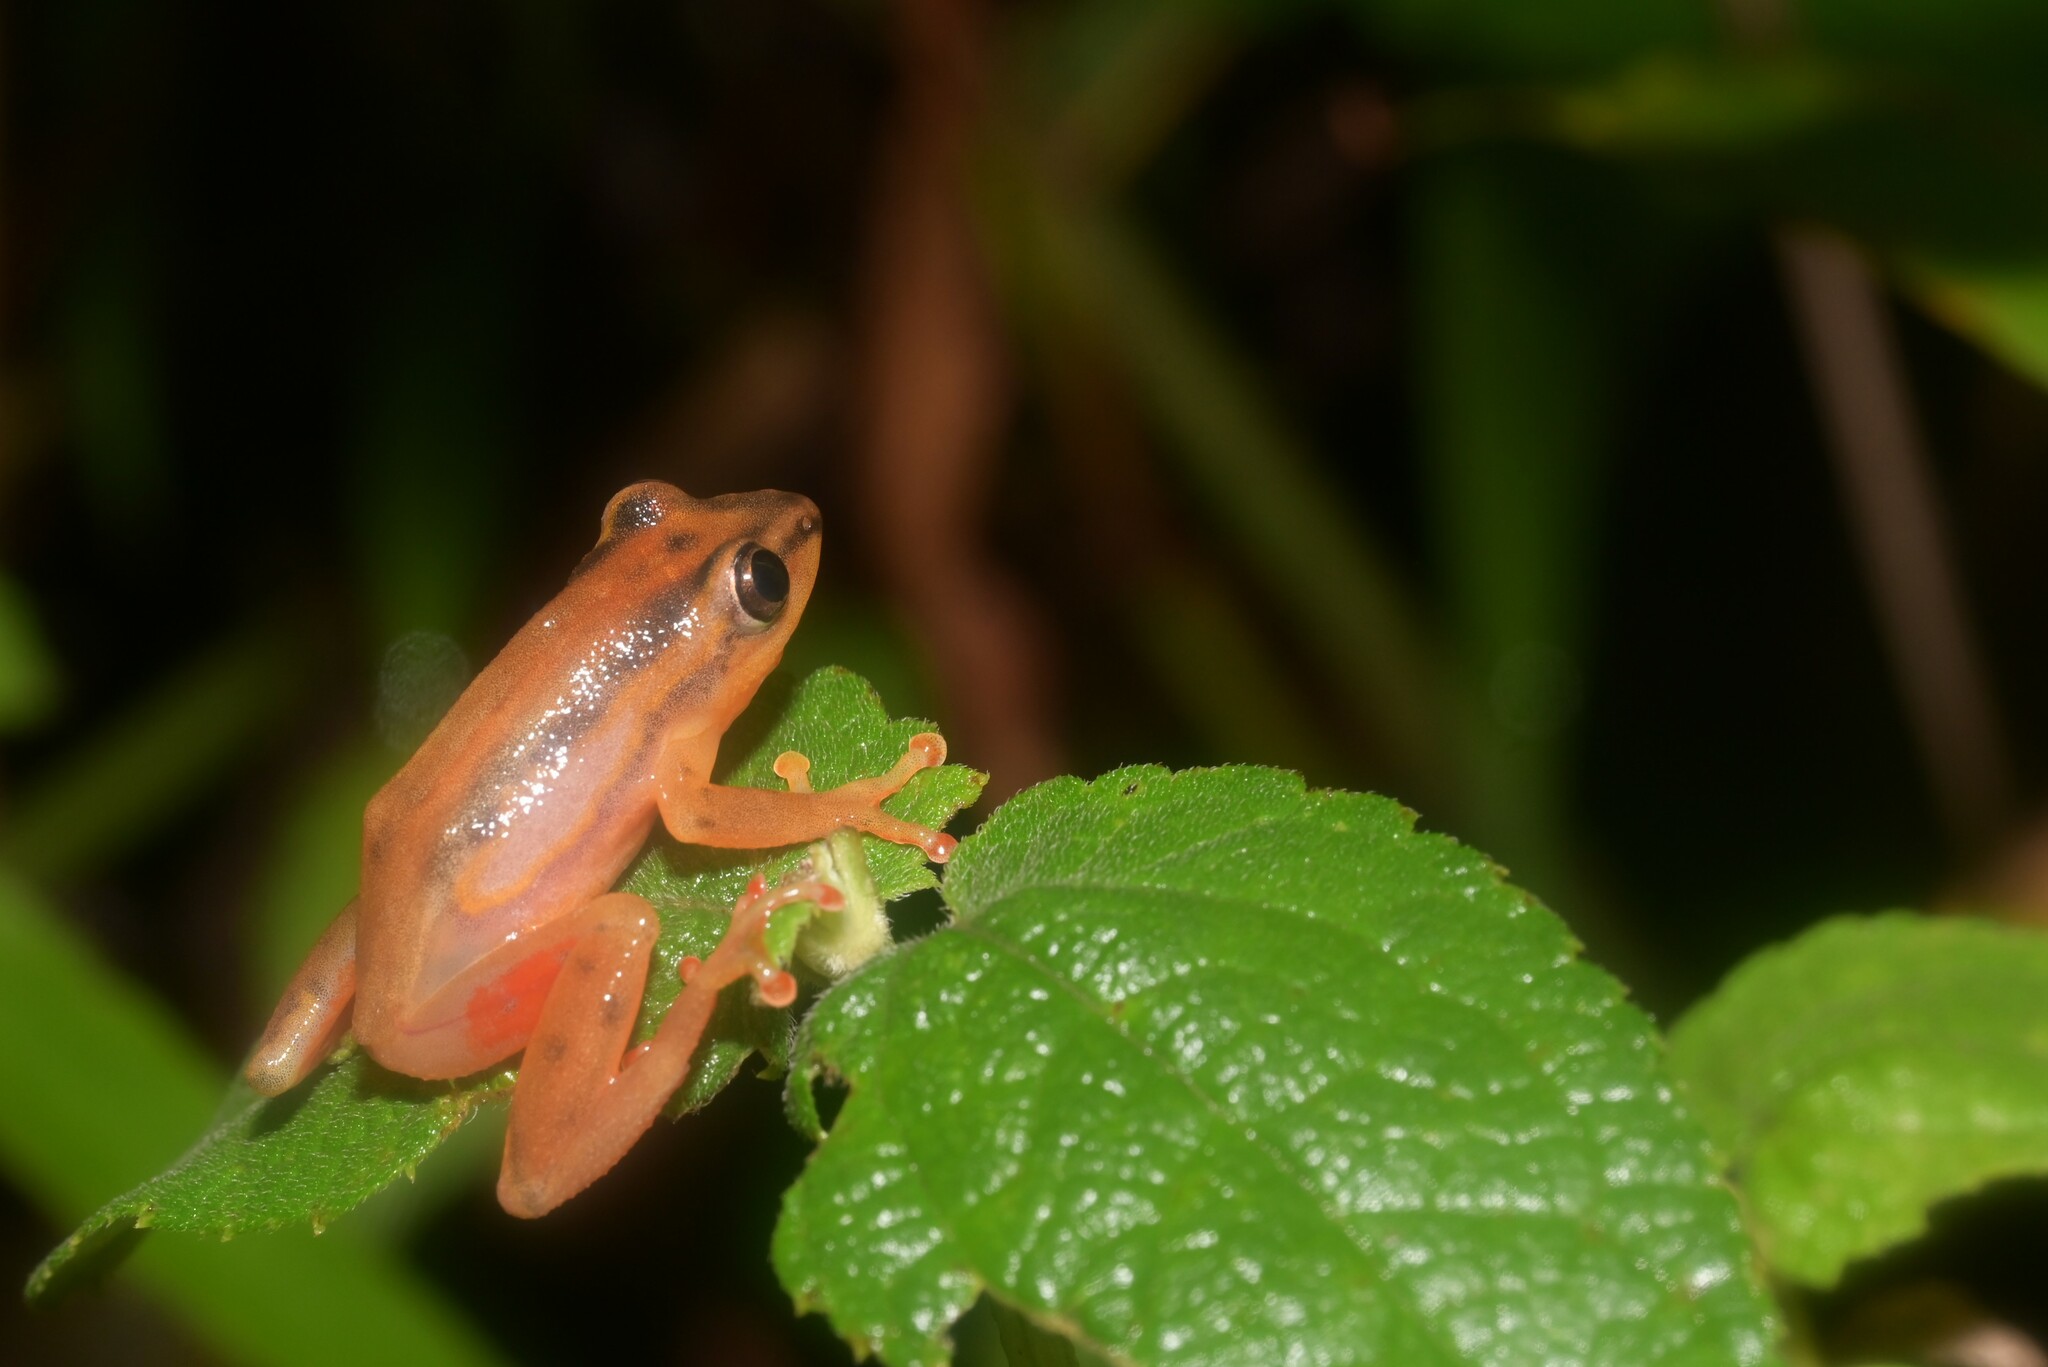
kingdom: Animalia
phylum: Chordata
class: Amphibia
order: Anura
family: Hyperoliidae
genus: Hyperolius
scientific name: Hyperolius mitchelli
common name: Mitchell's reed frog
